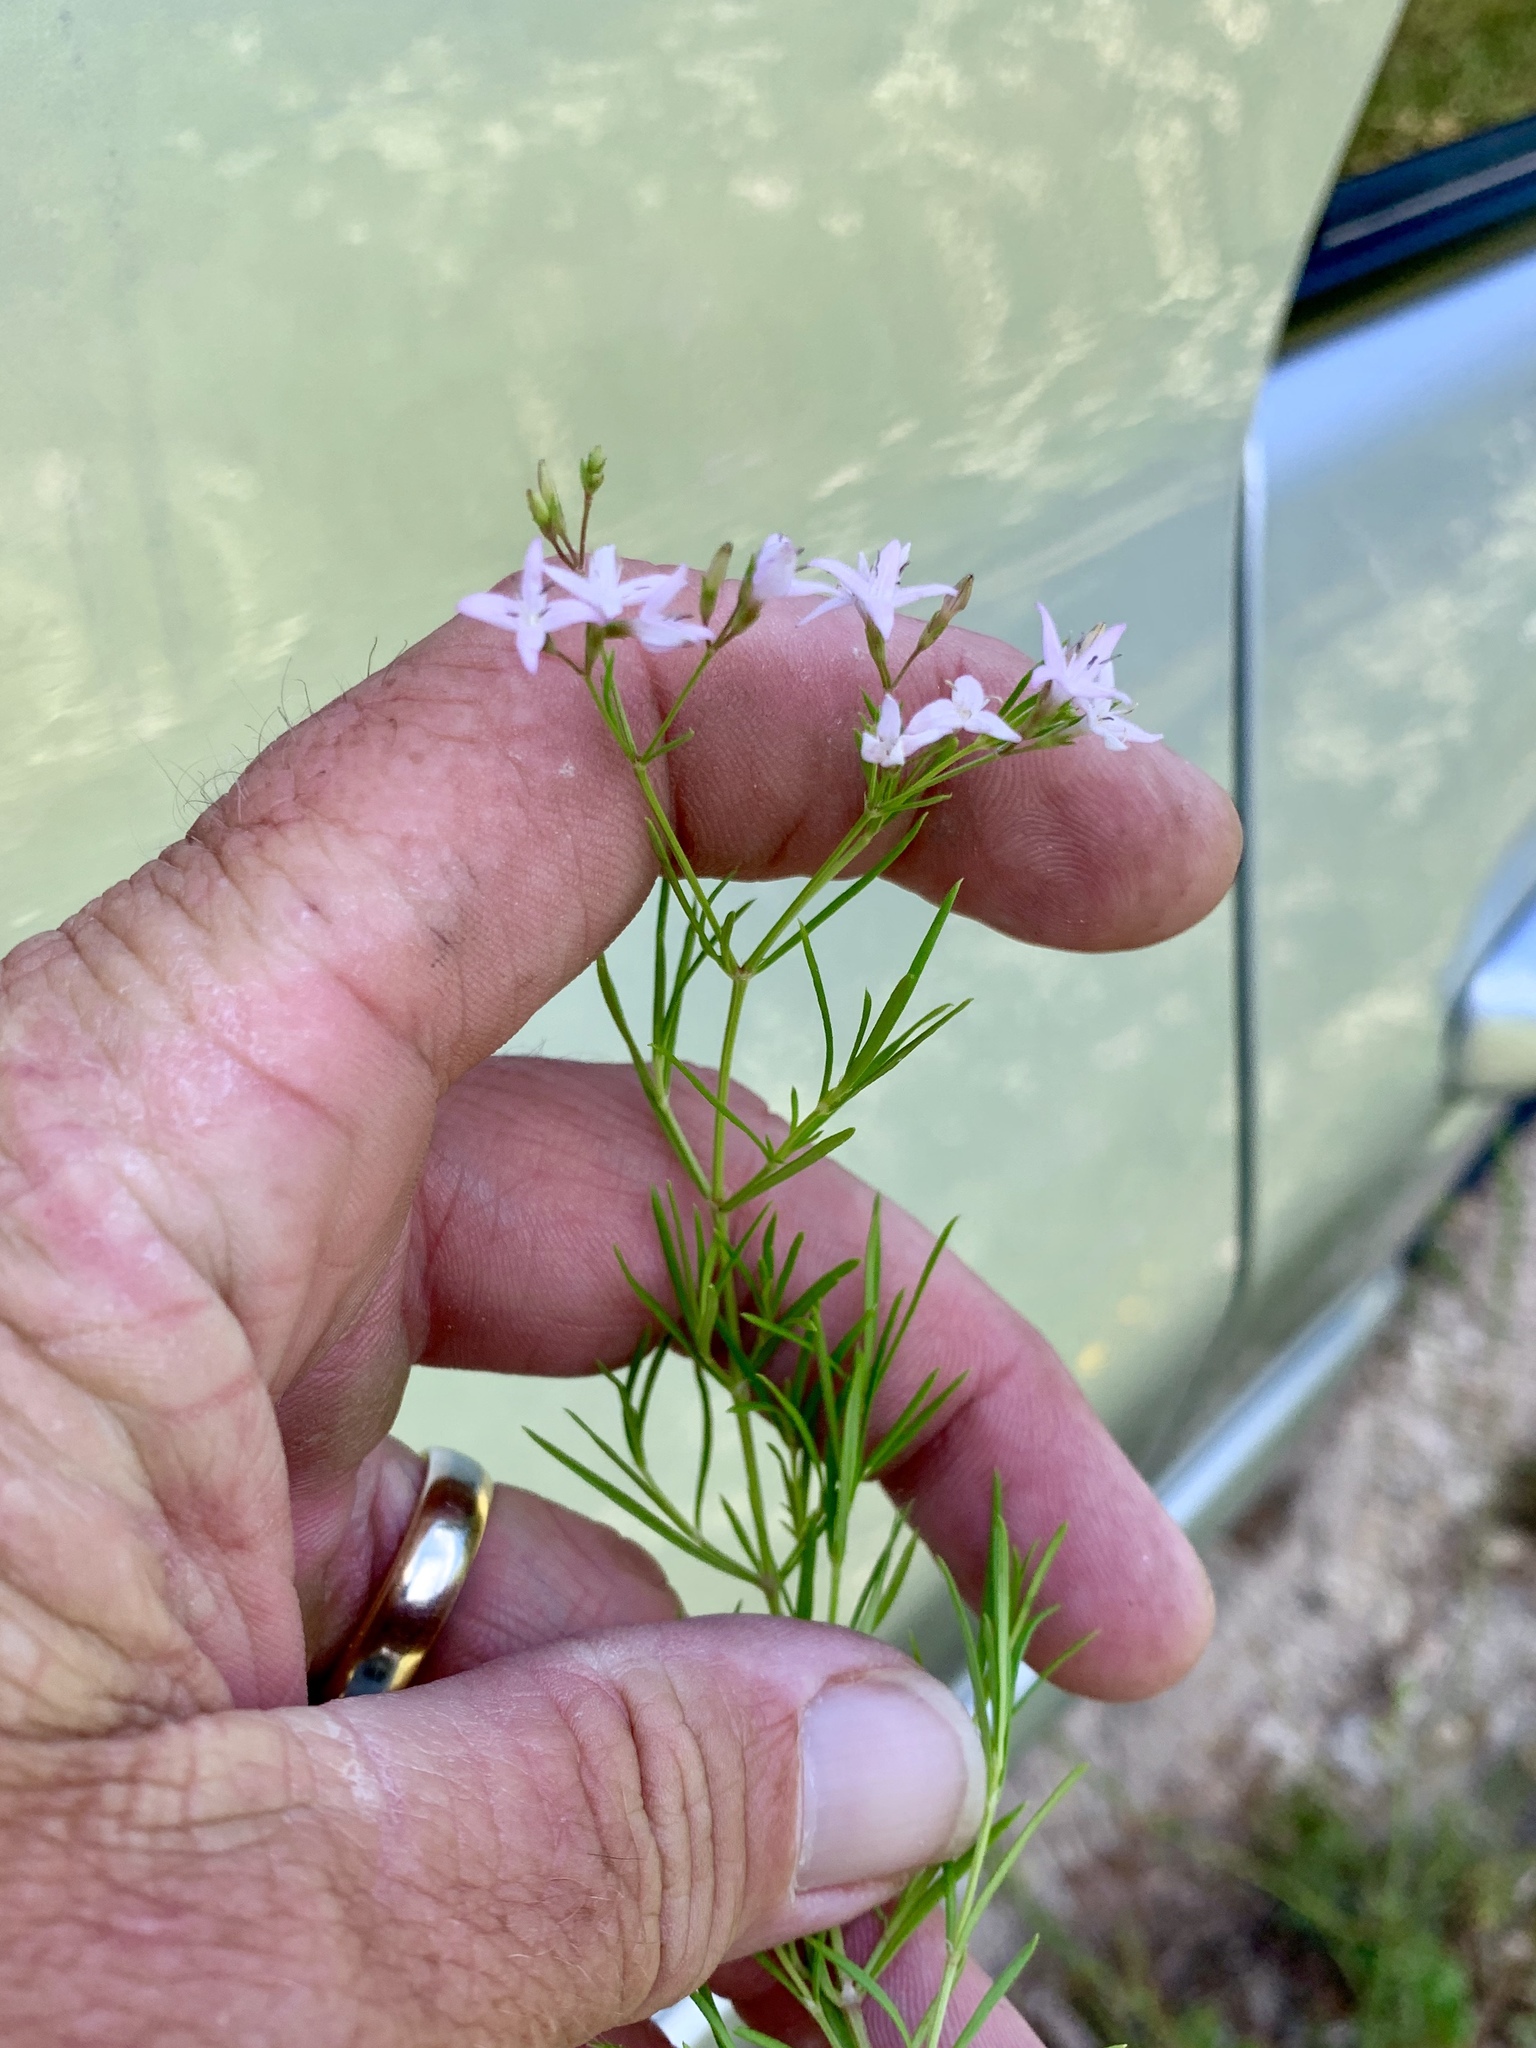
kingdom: Plantae
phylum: Tracheophyta
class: Magnoliopsida
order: Gentianales
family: Rubiaceae
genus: Stenaria
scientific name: Stenaria nigricans
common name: Diamondflowers
